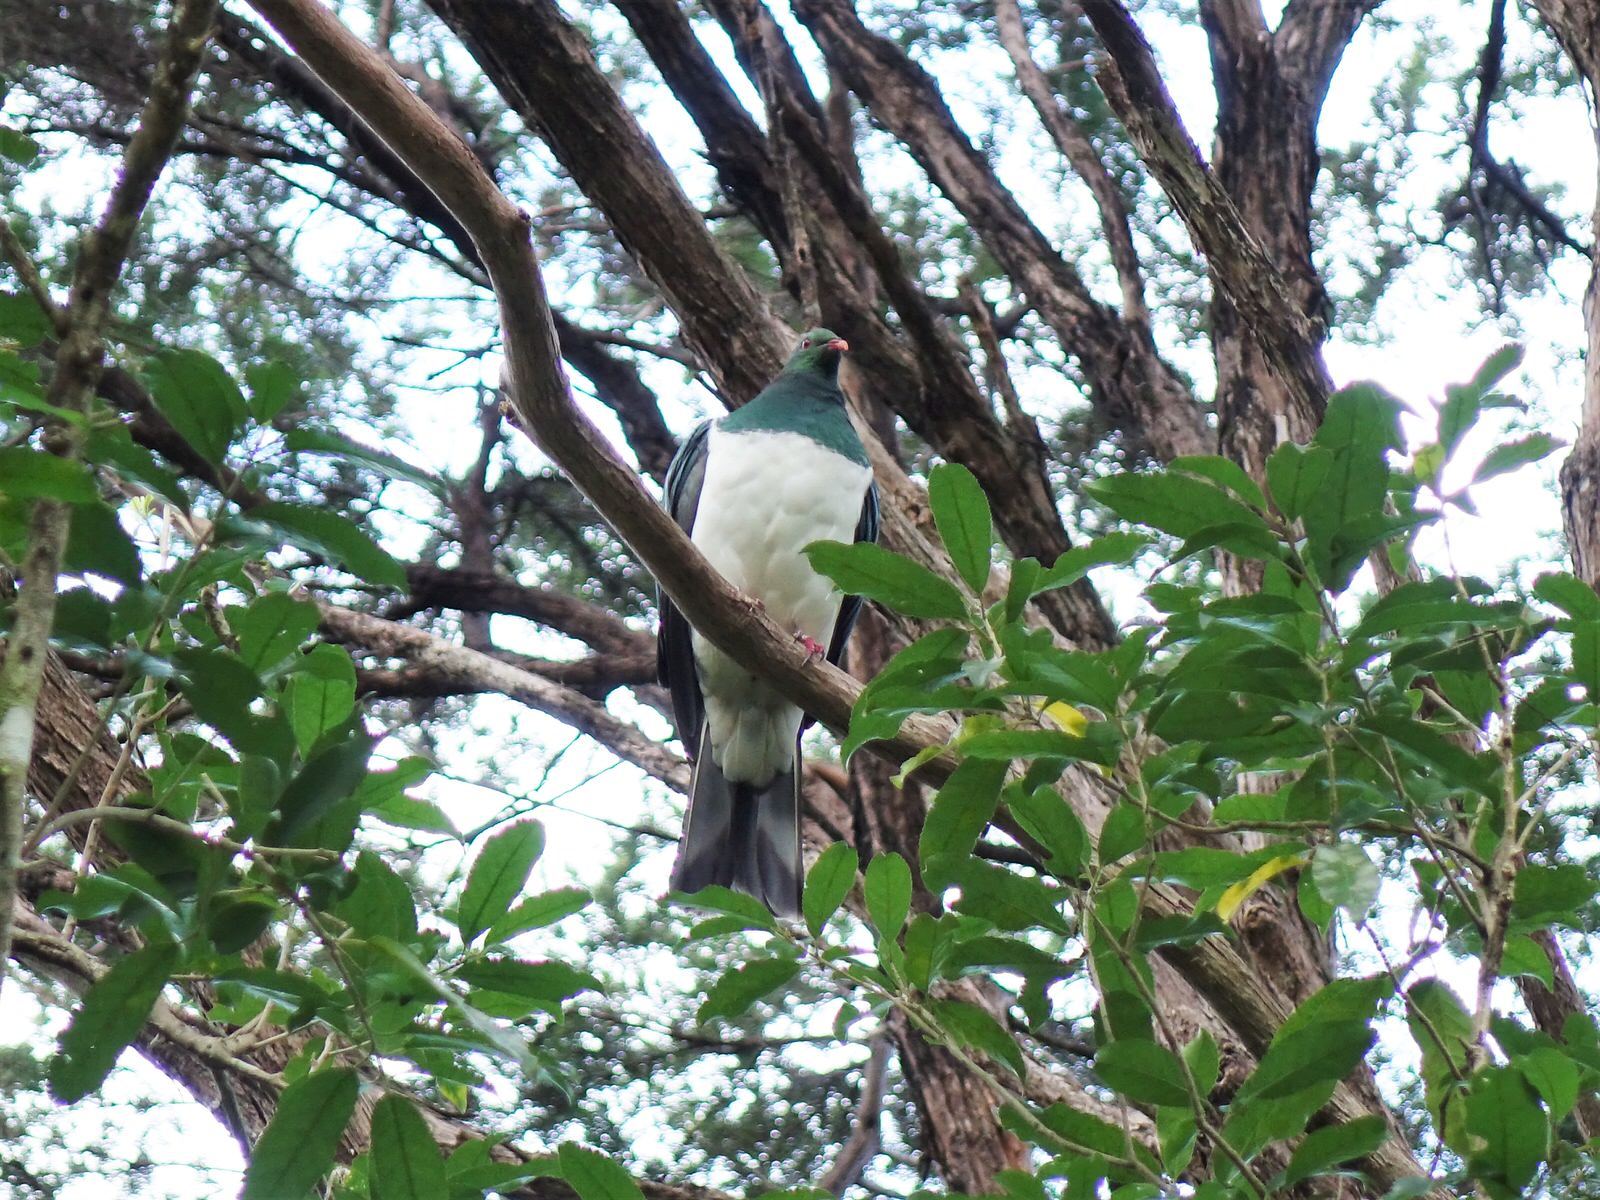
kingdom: Animalia
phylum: Chordata
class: Aves
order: Columbiformes
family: Columbidae
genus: Hemiphaga
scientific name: Hemiphaga novaeseelandiae
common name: New zealand pigeon
